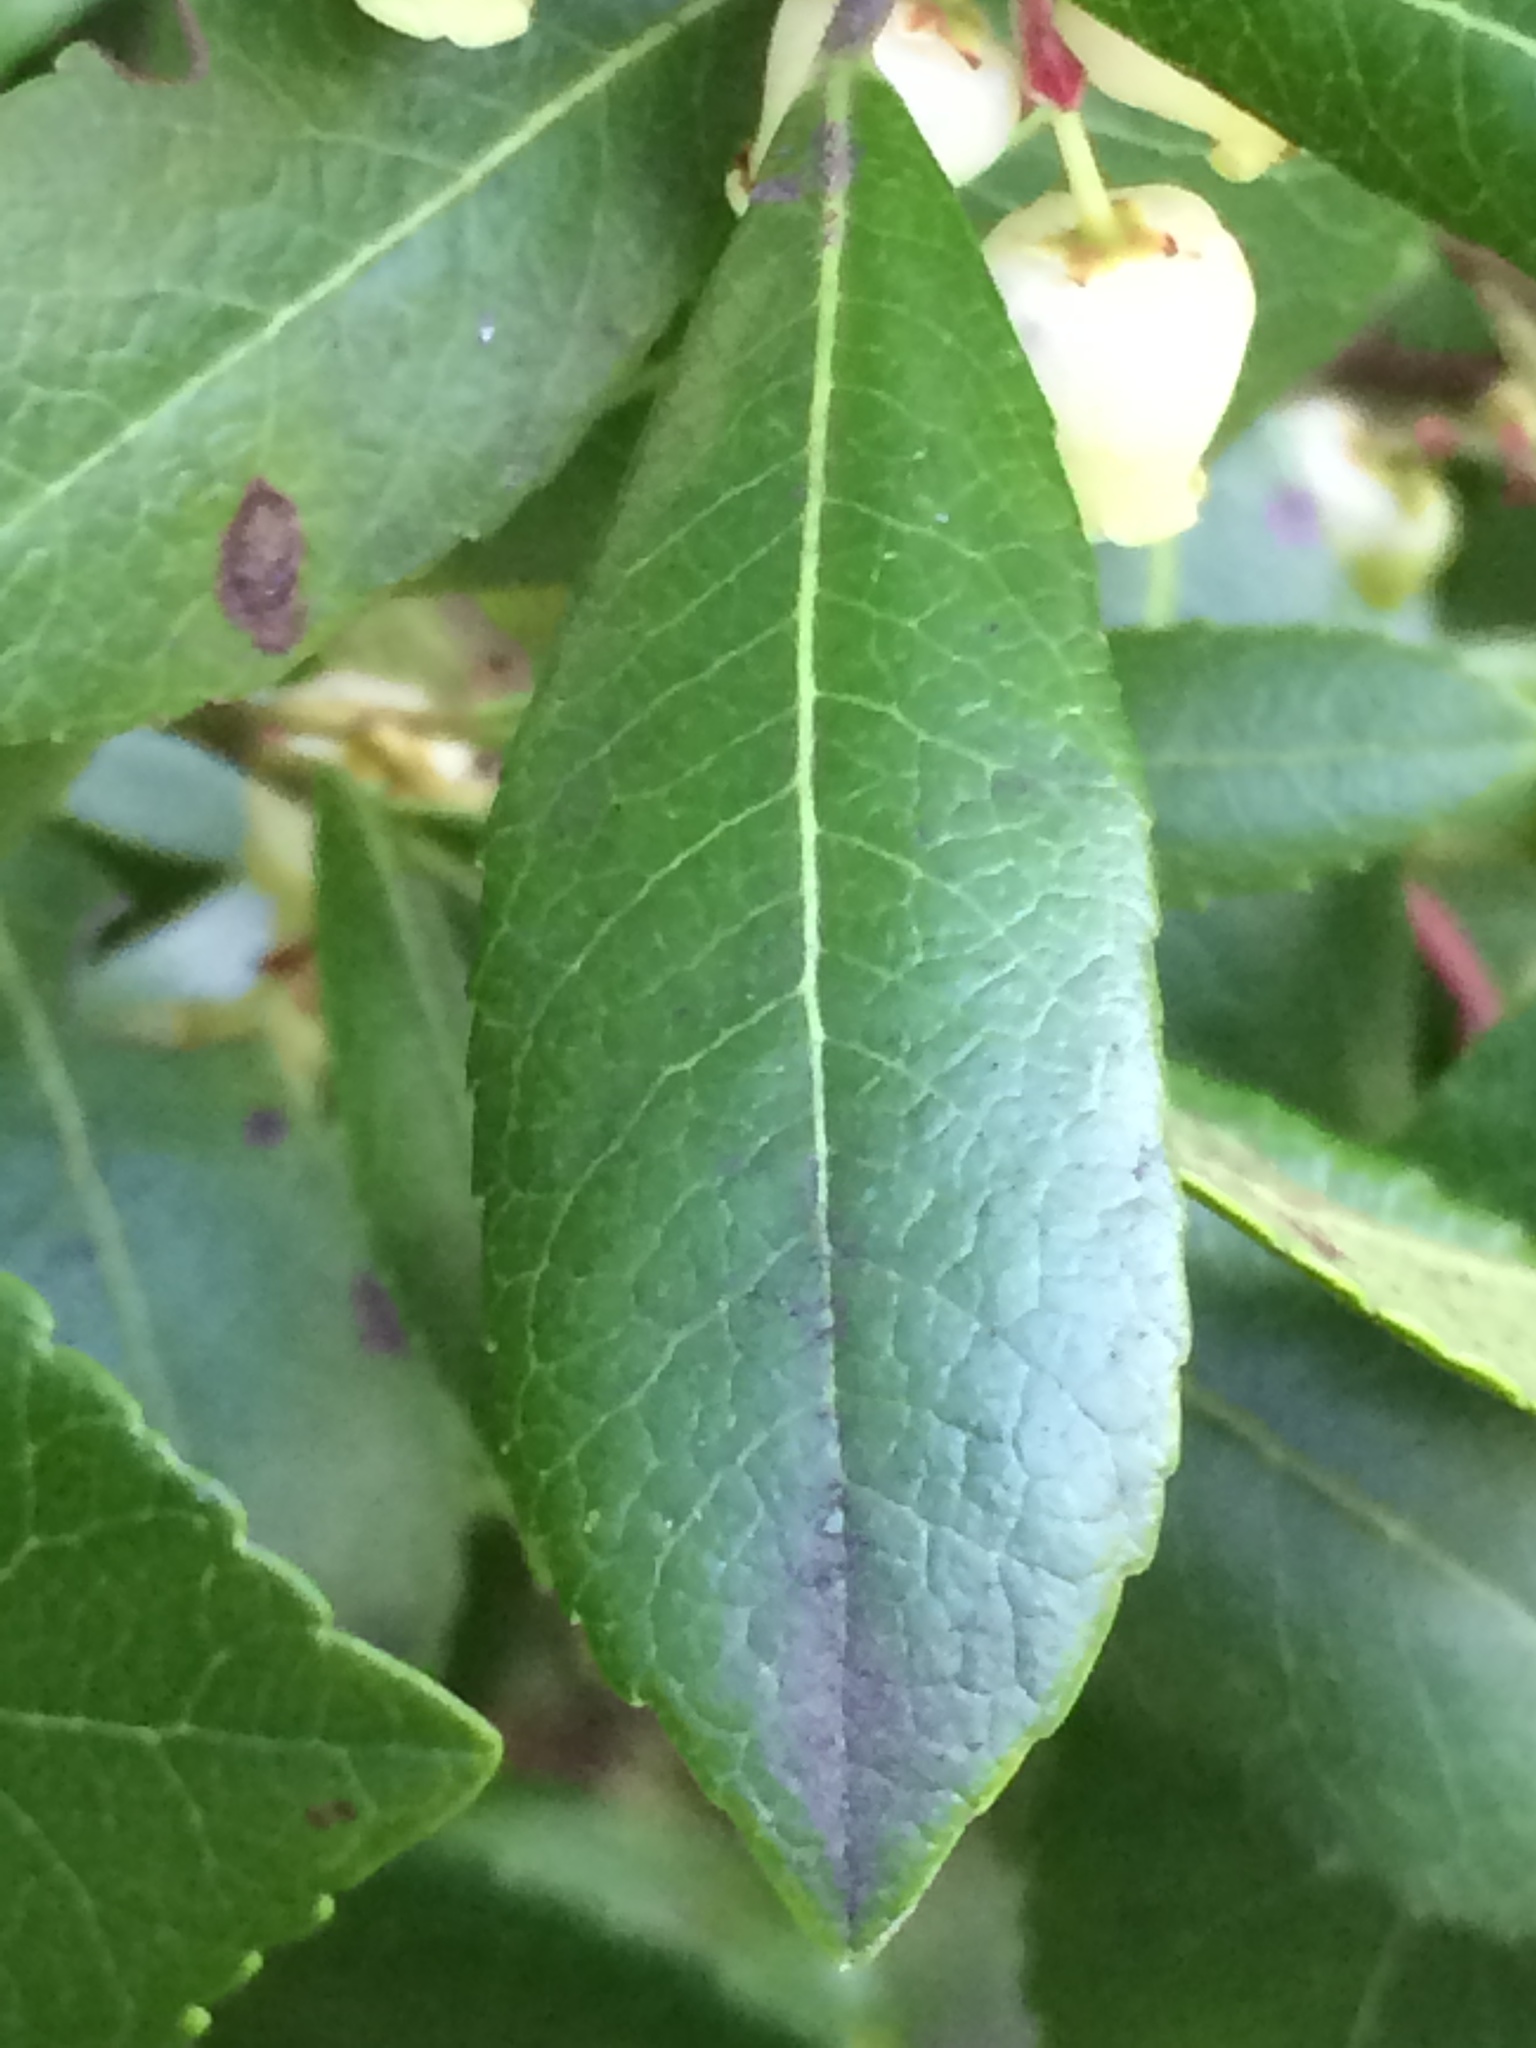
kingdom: Plantae
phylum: Tracheophyta
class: Magnoliopsida
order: Ericales
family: Ericaceae
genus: Arbutus
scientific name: Arbutus unedo
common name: Strawberry-tree
